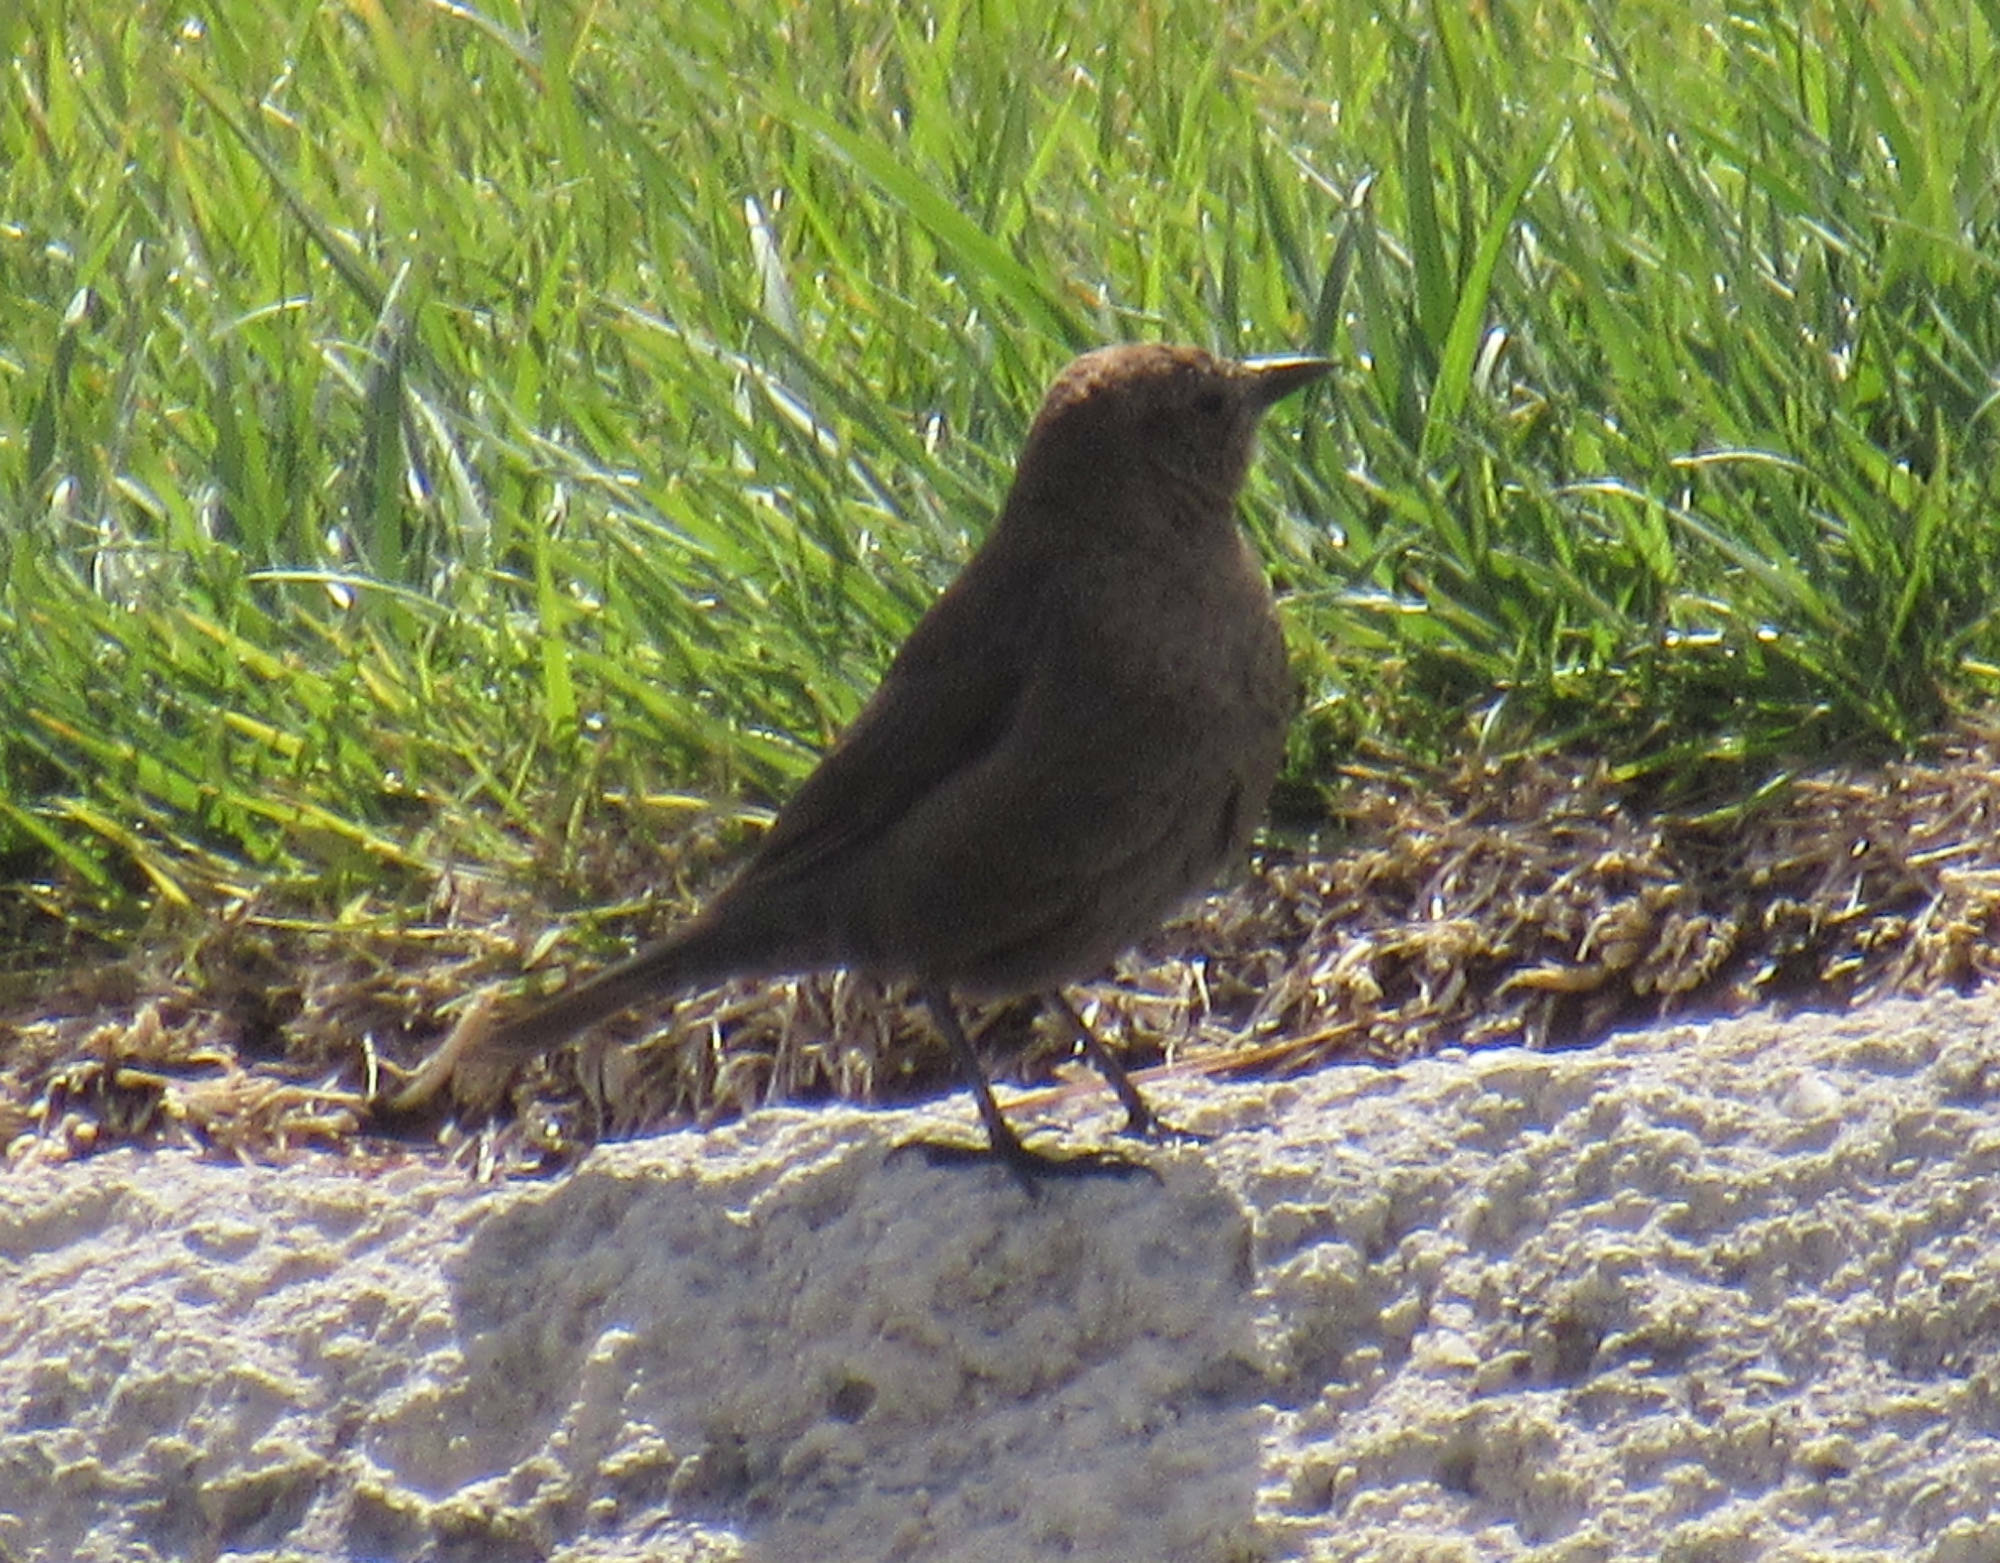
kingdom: Animalia
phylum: Chordata
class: Aves
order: Passeriformes
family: Icteridae
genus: Euphagus
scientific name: Euphagus cyanocephalus
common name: Brewer's blackbird
